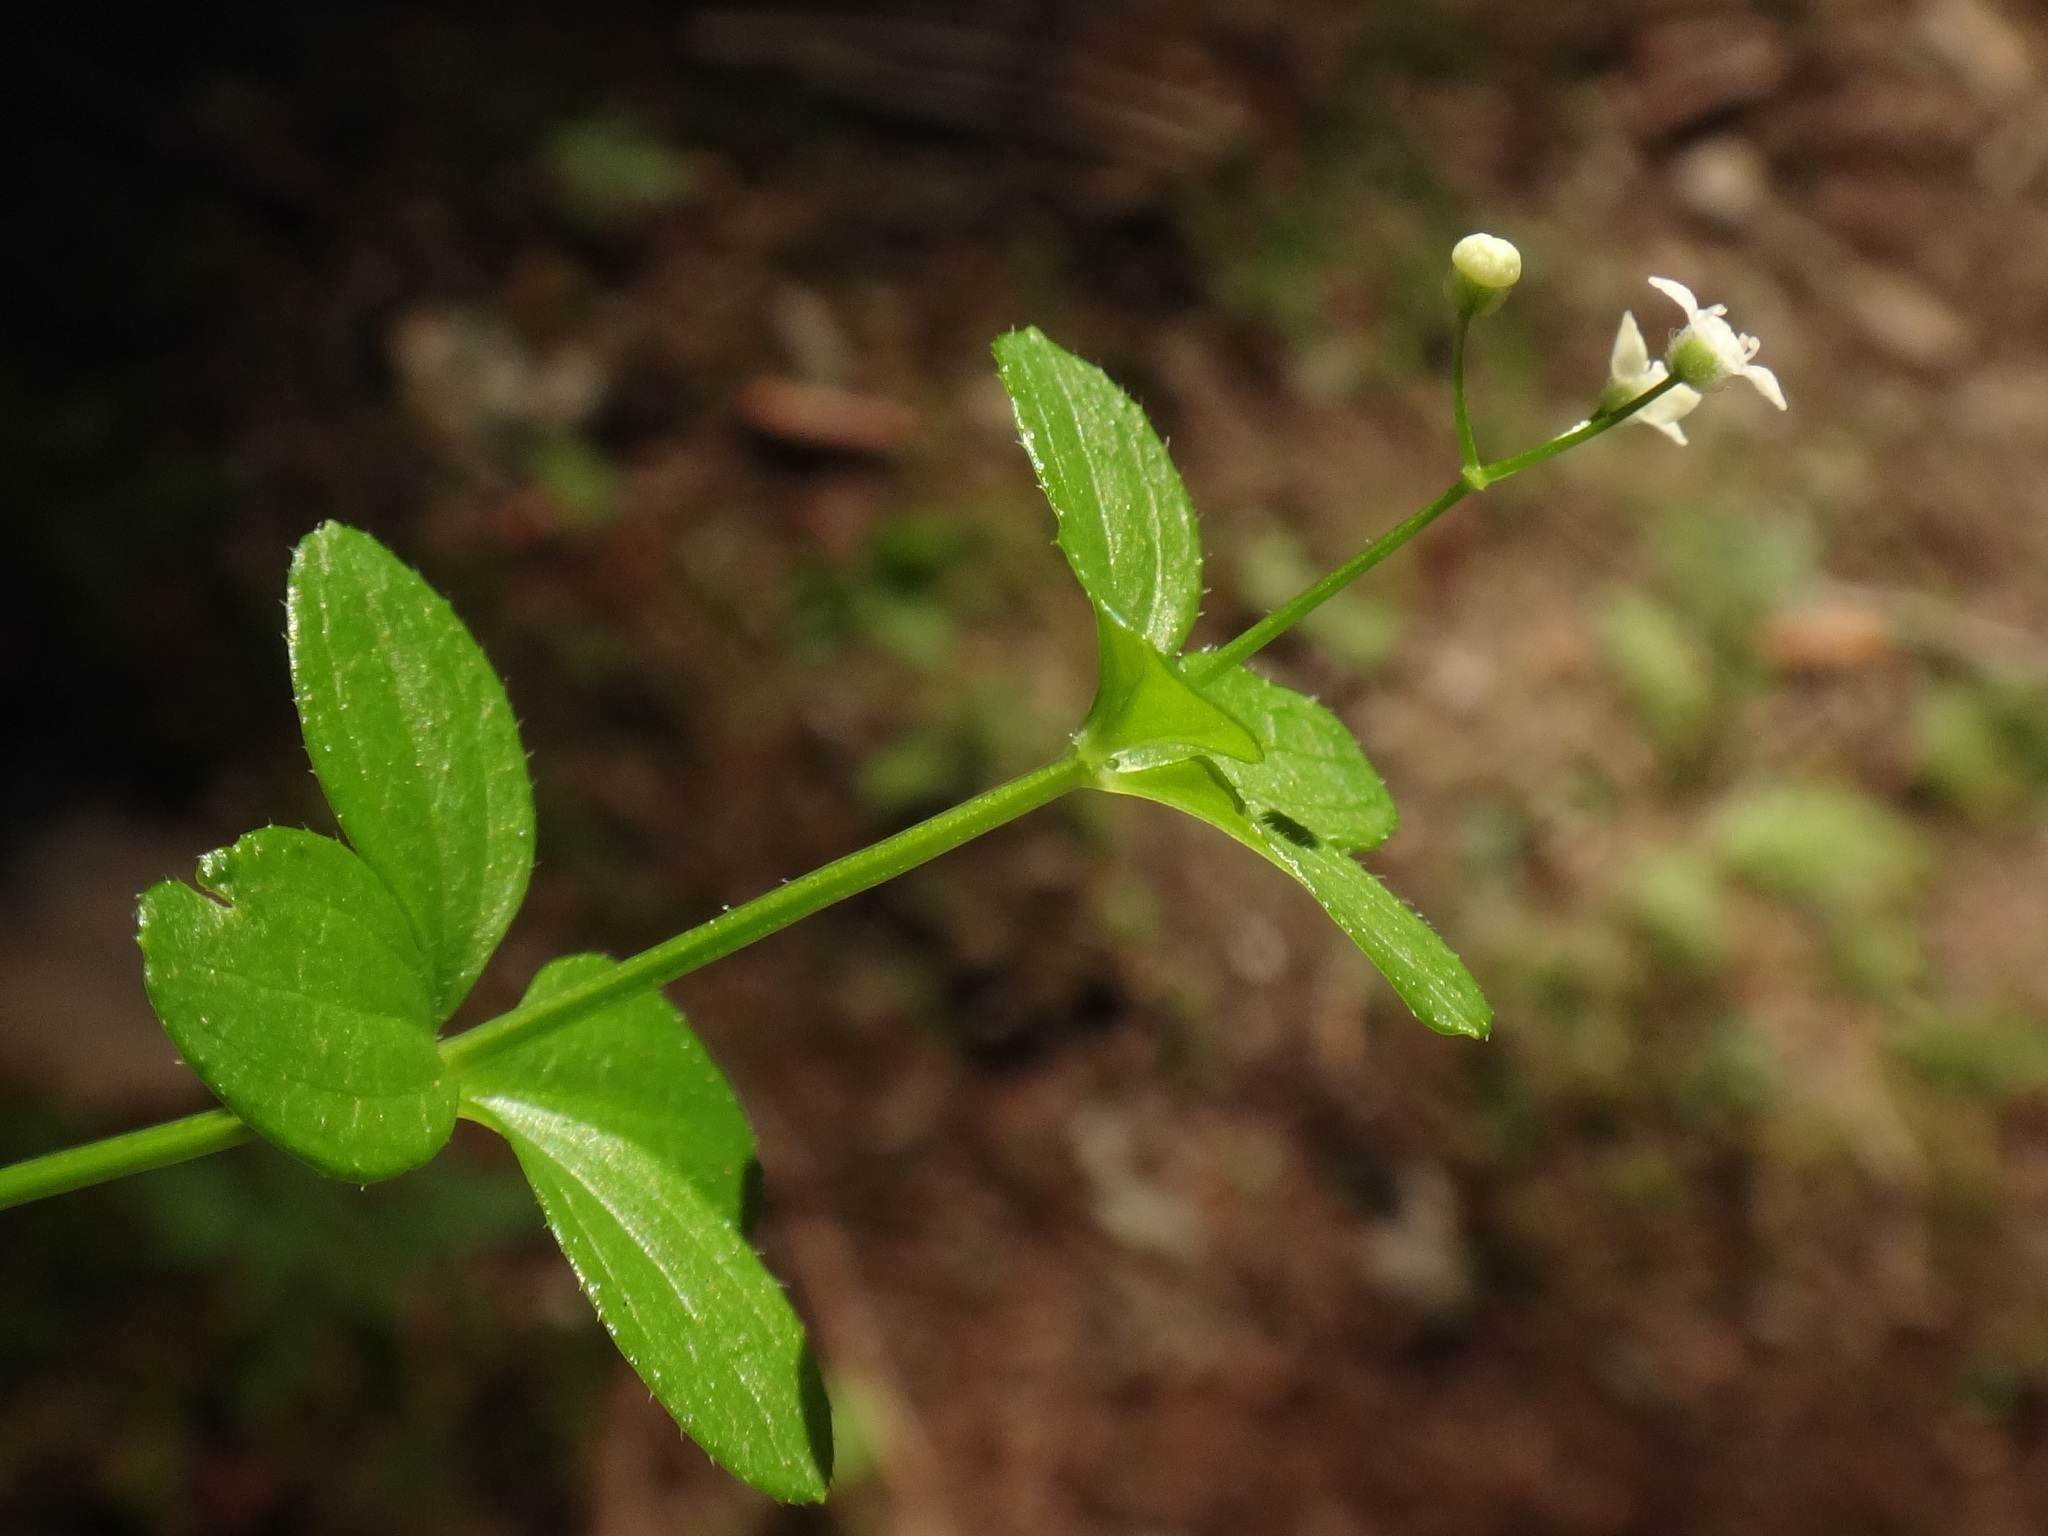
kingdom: Plantae
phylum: Tracheophyta
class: Magnoliopsida
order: Gentianales
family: Rubiaceae
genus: Galium
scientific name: Galium rotundifolium
